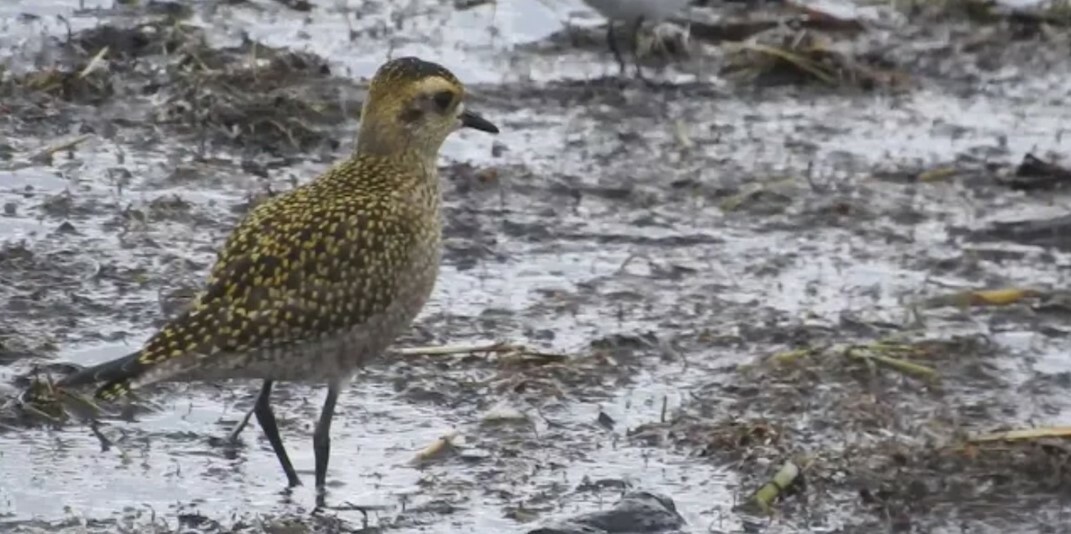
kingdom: Animalia
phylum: Chordata
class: Aves
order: Charadriiformes
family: Charadriidae
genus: Pluvialis
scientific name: Pluvialis dominica
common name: American golden plover
